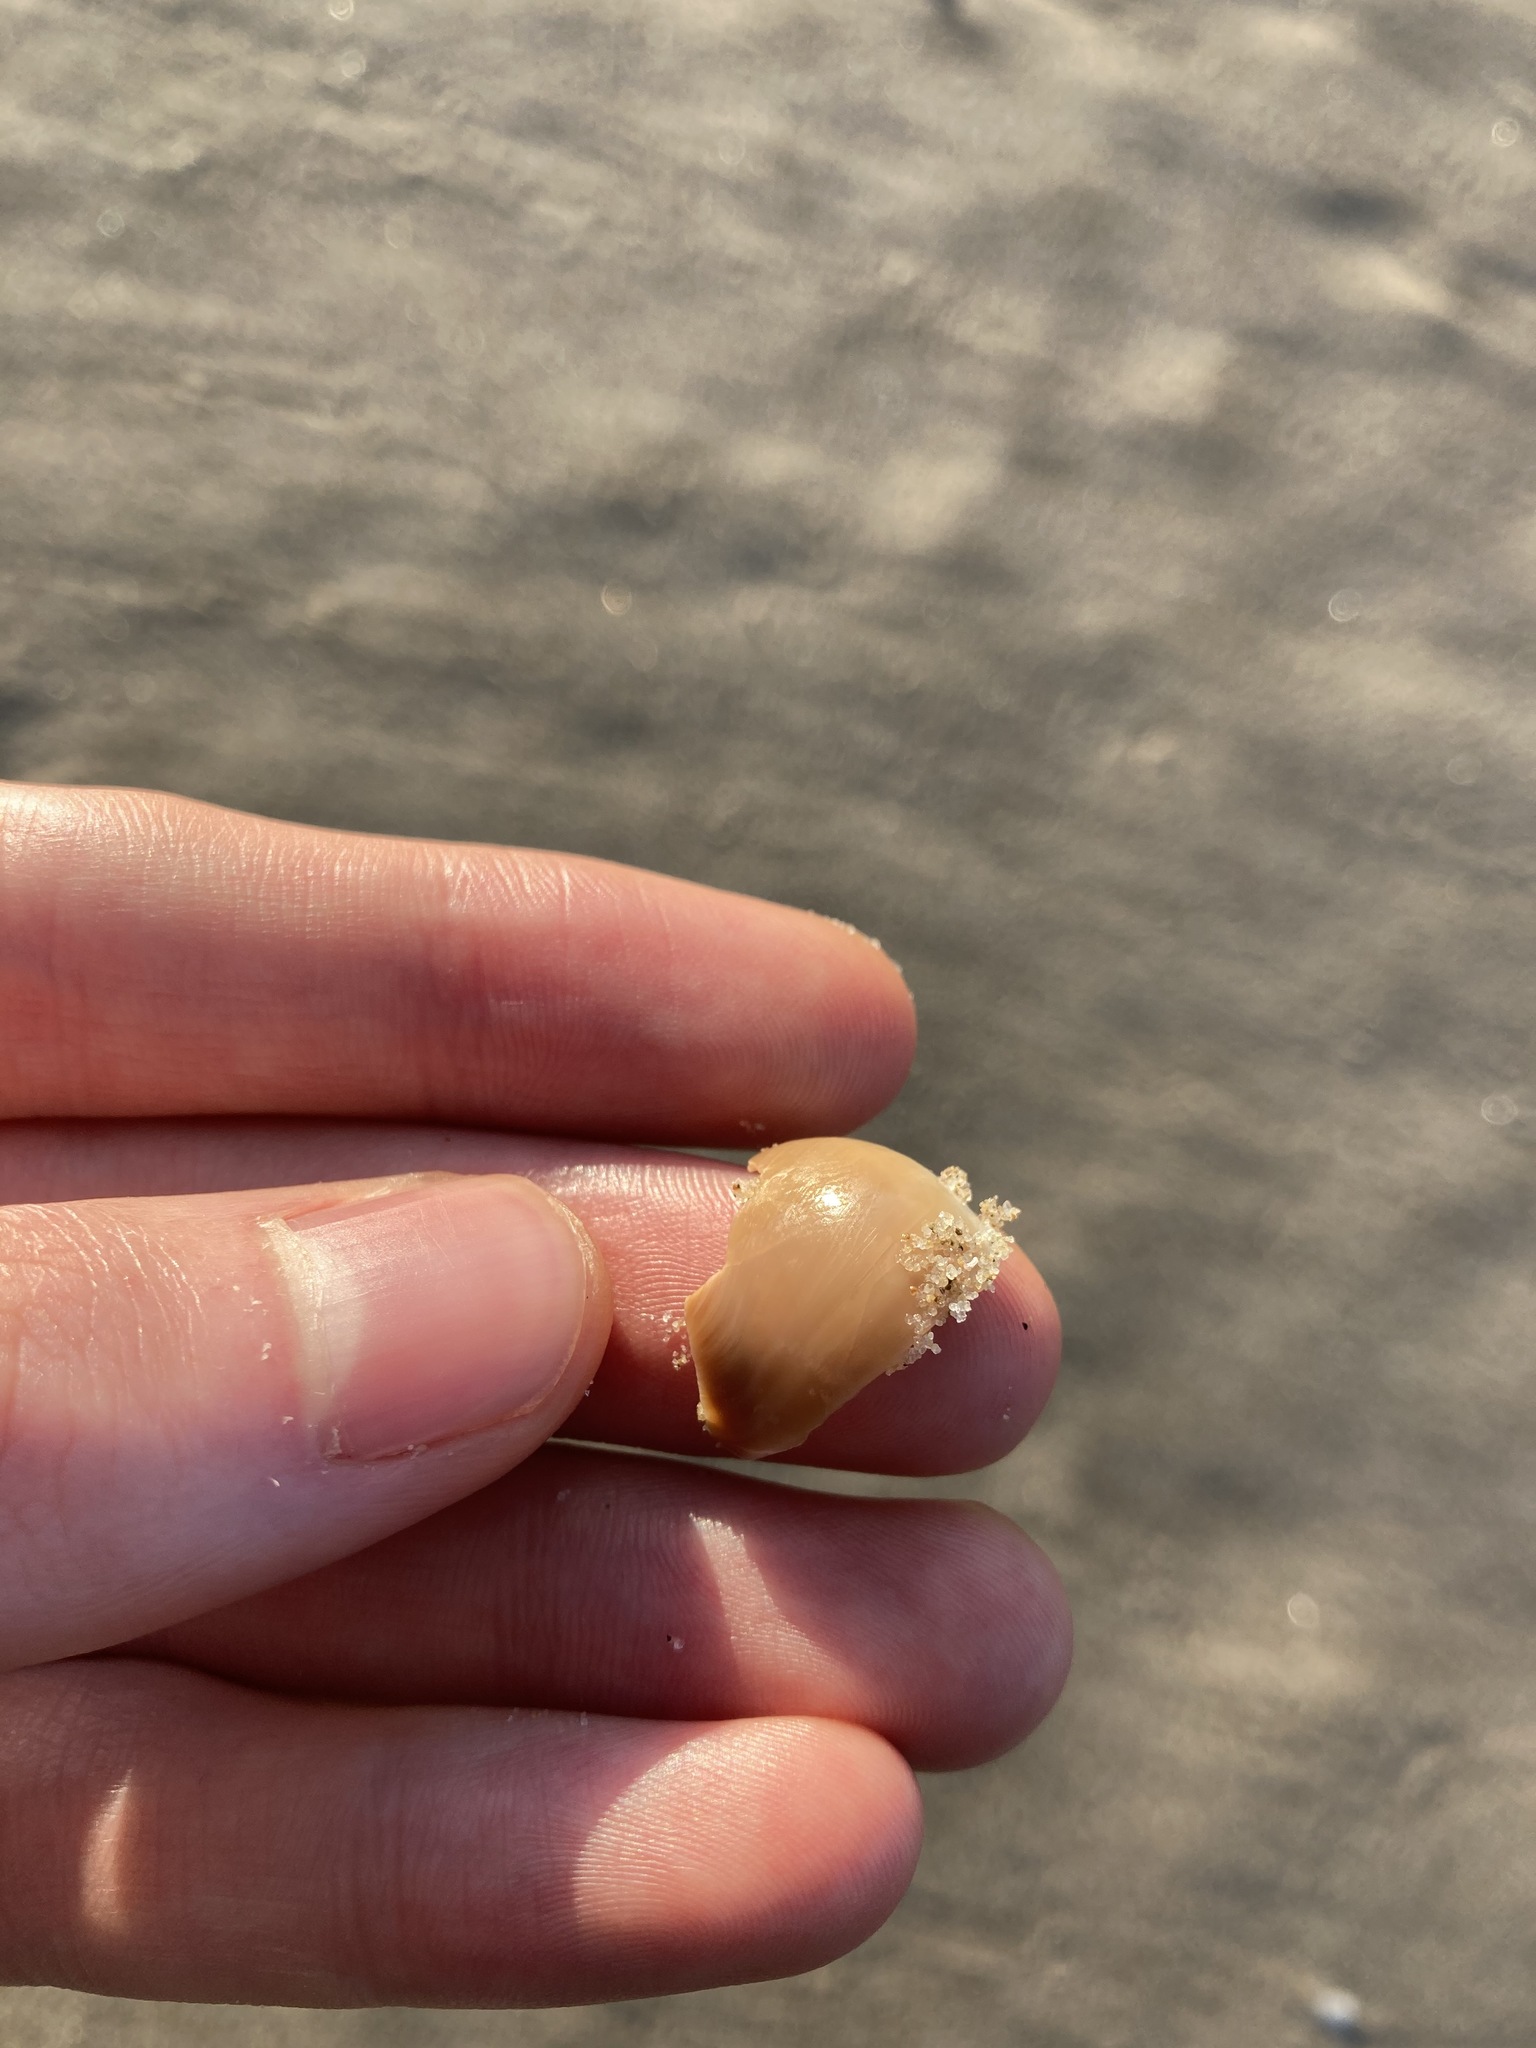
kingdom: Animalia
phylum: Mollusca
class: Gastropoda
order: Littorinimorpha
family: Naticidae
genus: Neverita
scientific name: Neverita didyma
